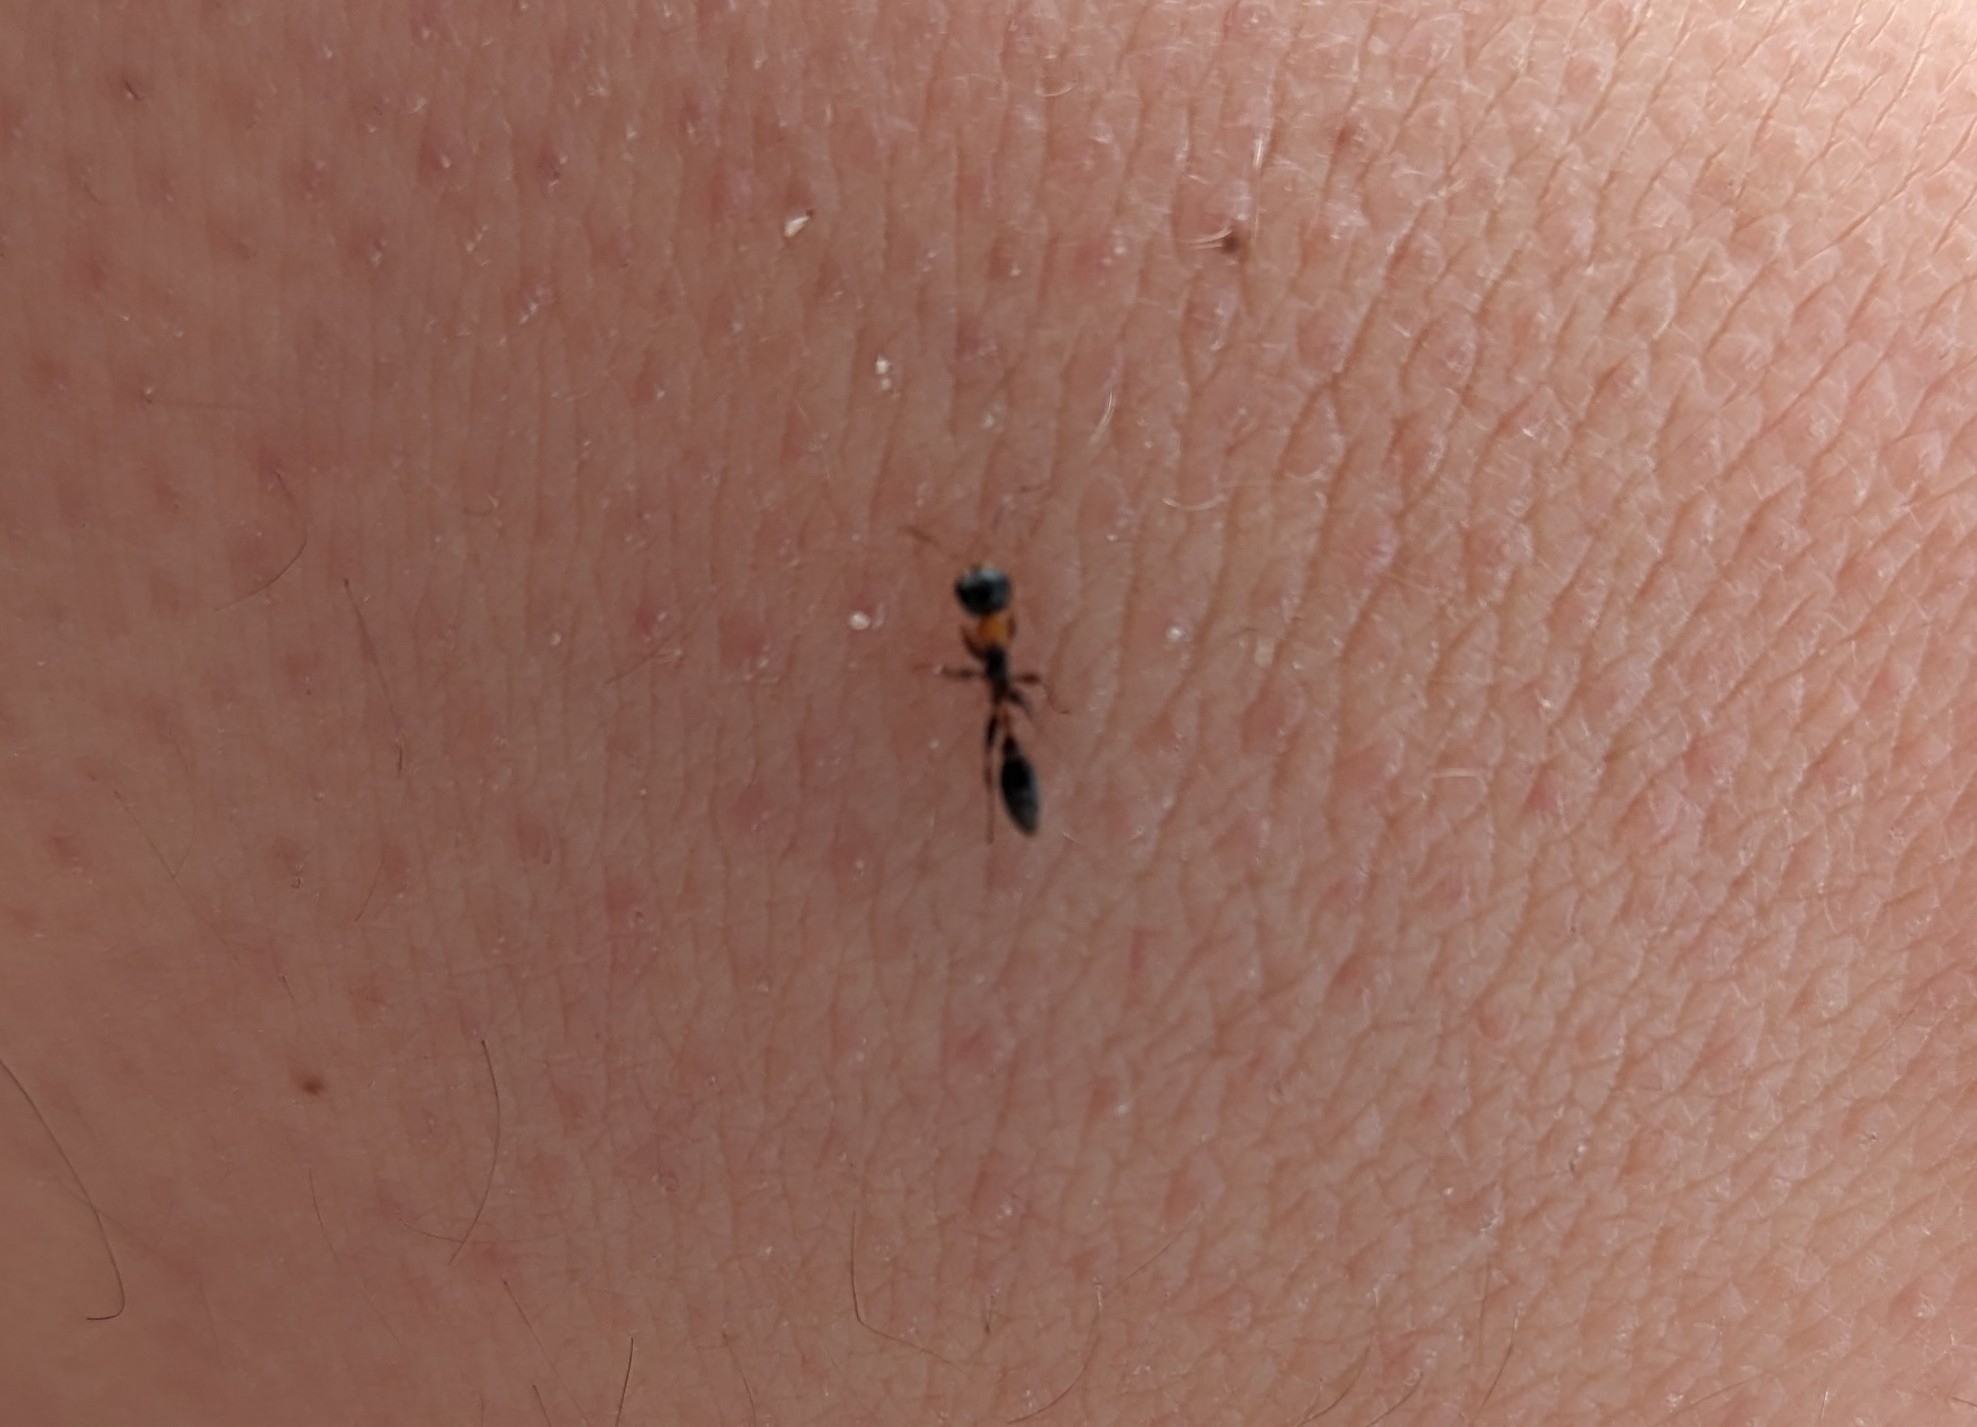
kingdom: Animalia
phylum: Arthropoda
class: Insecta
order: Hymenoptera
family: Formicidae
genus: Pseudomyrmex
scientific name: Pseudomyrmex gracilis
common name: Graceful twig ant
